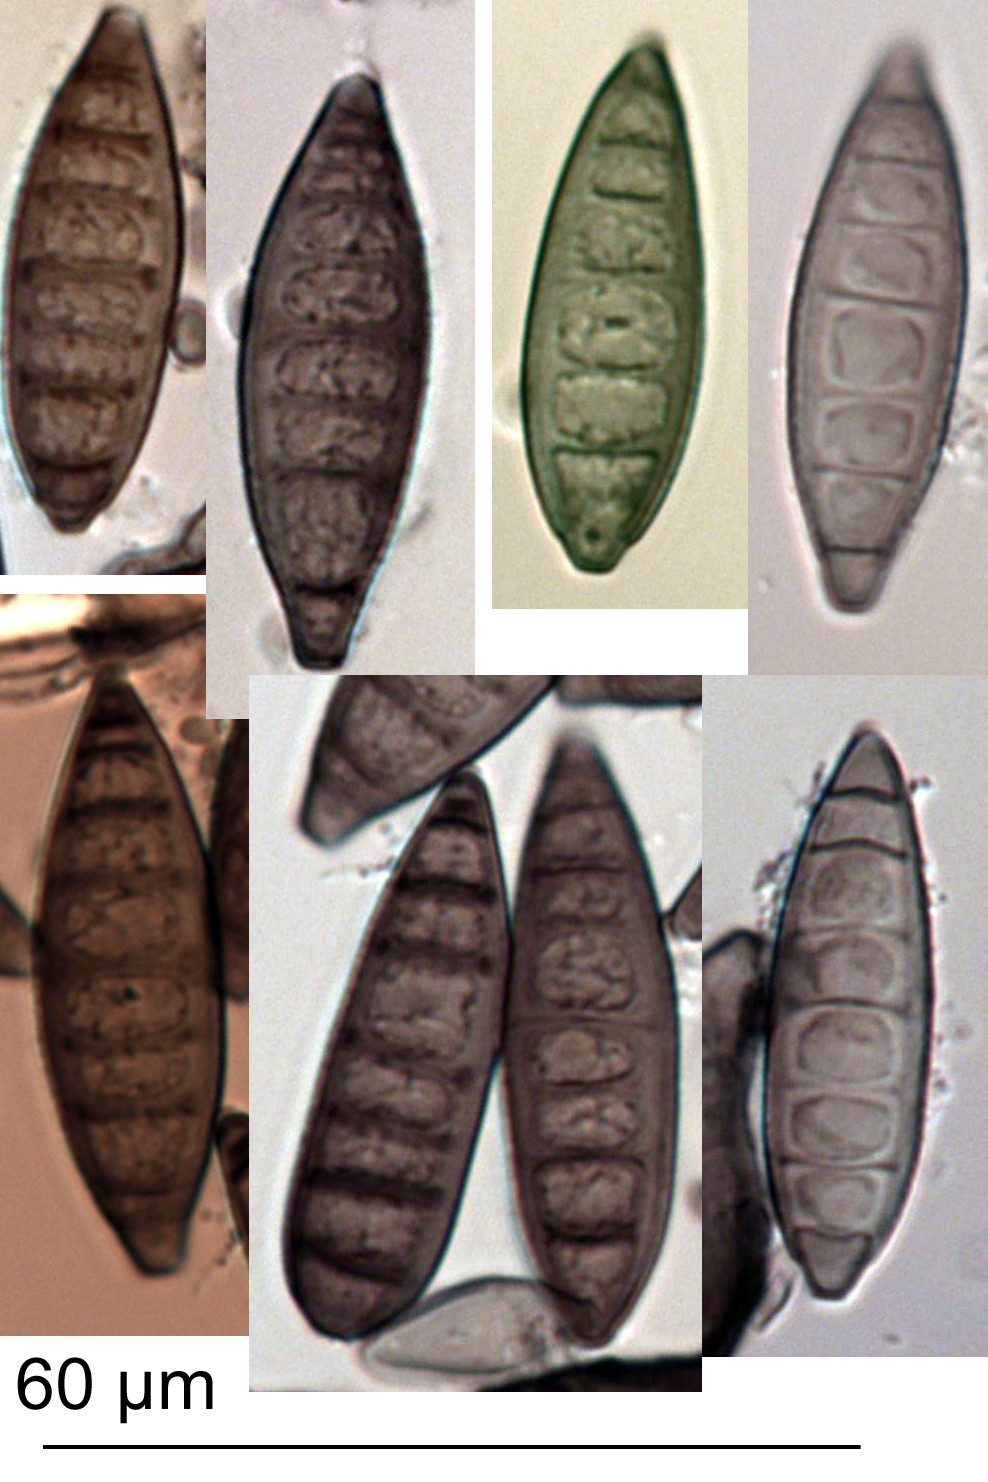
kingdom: Fungi
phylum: Ascomycota
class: Leotiomycetes
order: Helotiales
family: Helotiaceae
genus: Strossmayeria
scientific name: Strossmayeria bakeriana
